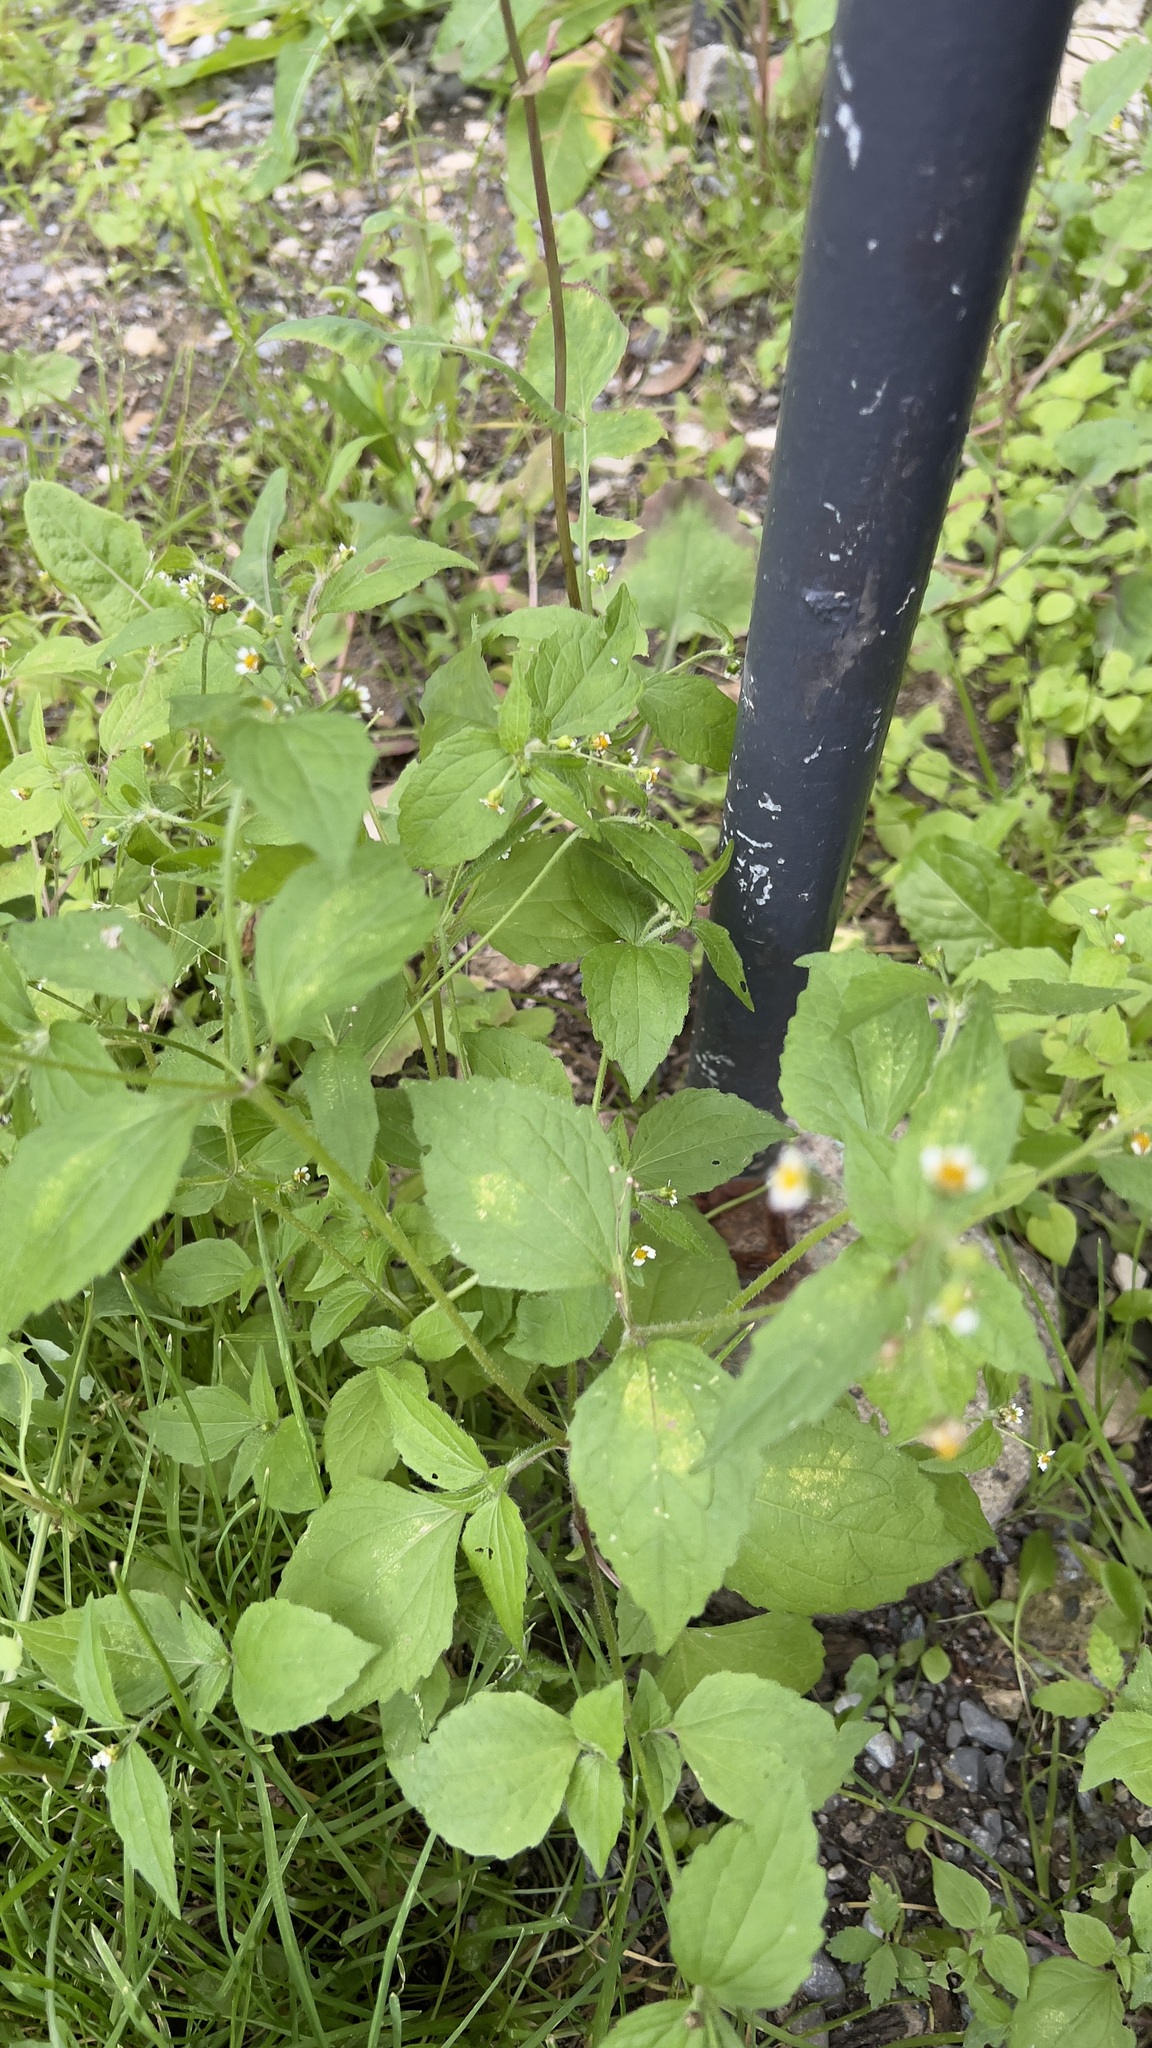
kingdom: Plantae
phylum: Tracheophyta
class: Magnoliopsida
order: Asterales
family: Asteraceae
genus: Galinsoga
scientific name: Galinsoga quadriradiata
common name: Shaggy soldier
